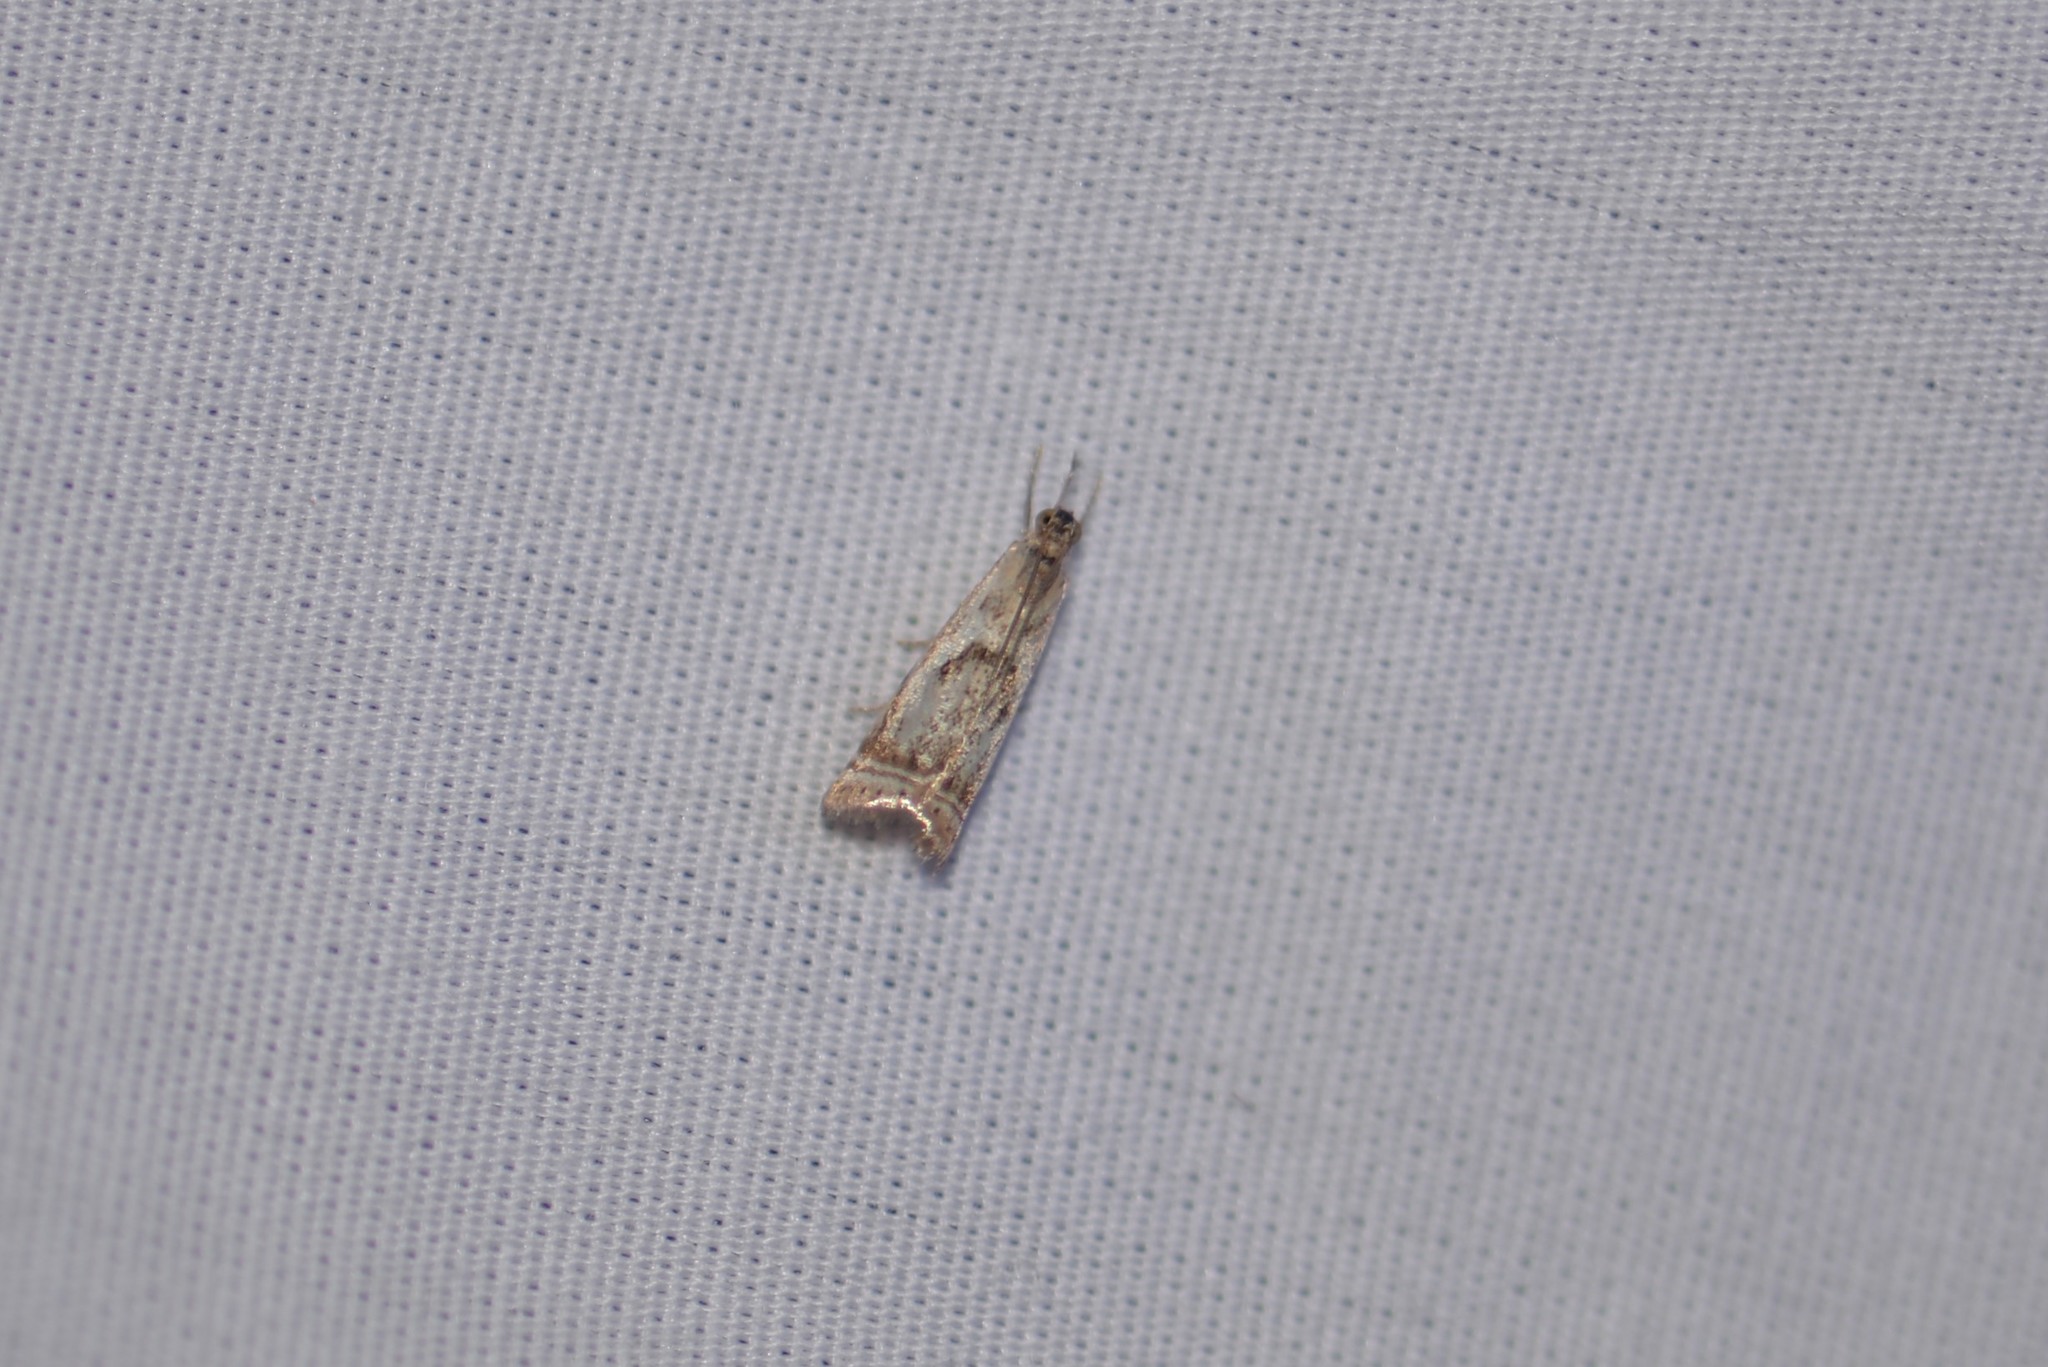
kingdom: Animalia
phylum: Arthropoda
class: Insecta
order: Lepidoptera
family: Crambidae
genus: Microcrambus
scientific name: Microcrambus elegans
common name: Elegant grass-veneer
